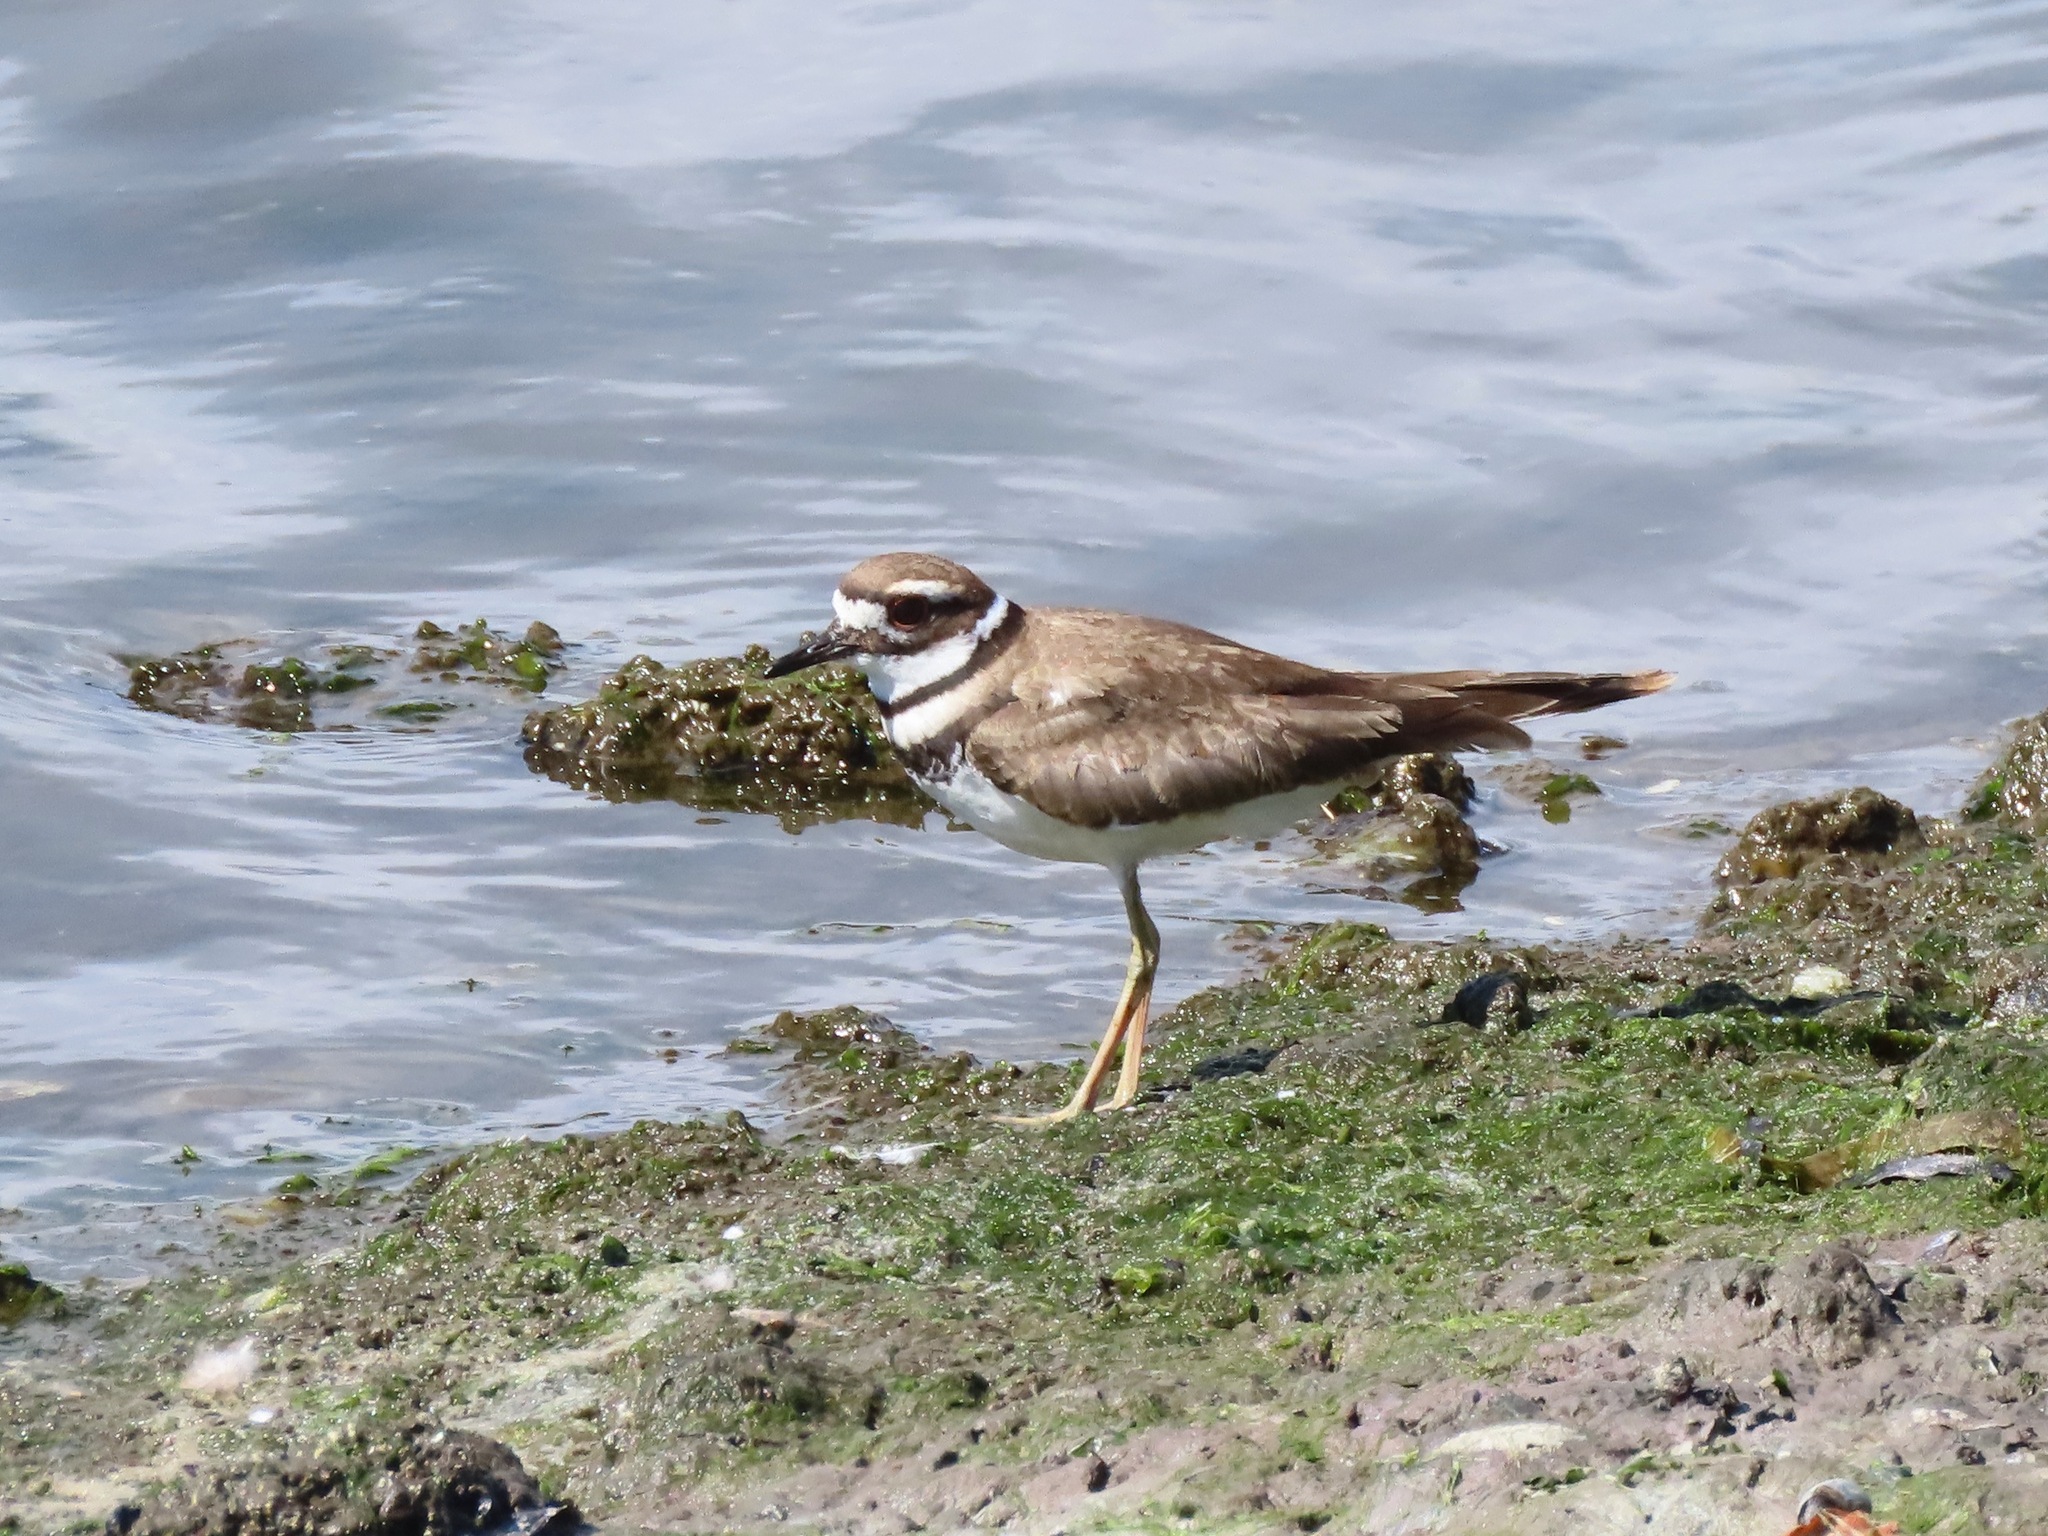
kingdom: Animalia
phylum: Chordata
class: Aves
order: Charadriiformes
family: Charadriidae
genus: Charadrius
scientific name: Charadrius vociferus
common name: Killdeer
